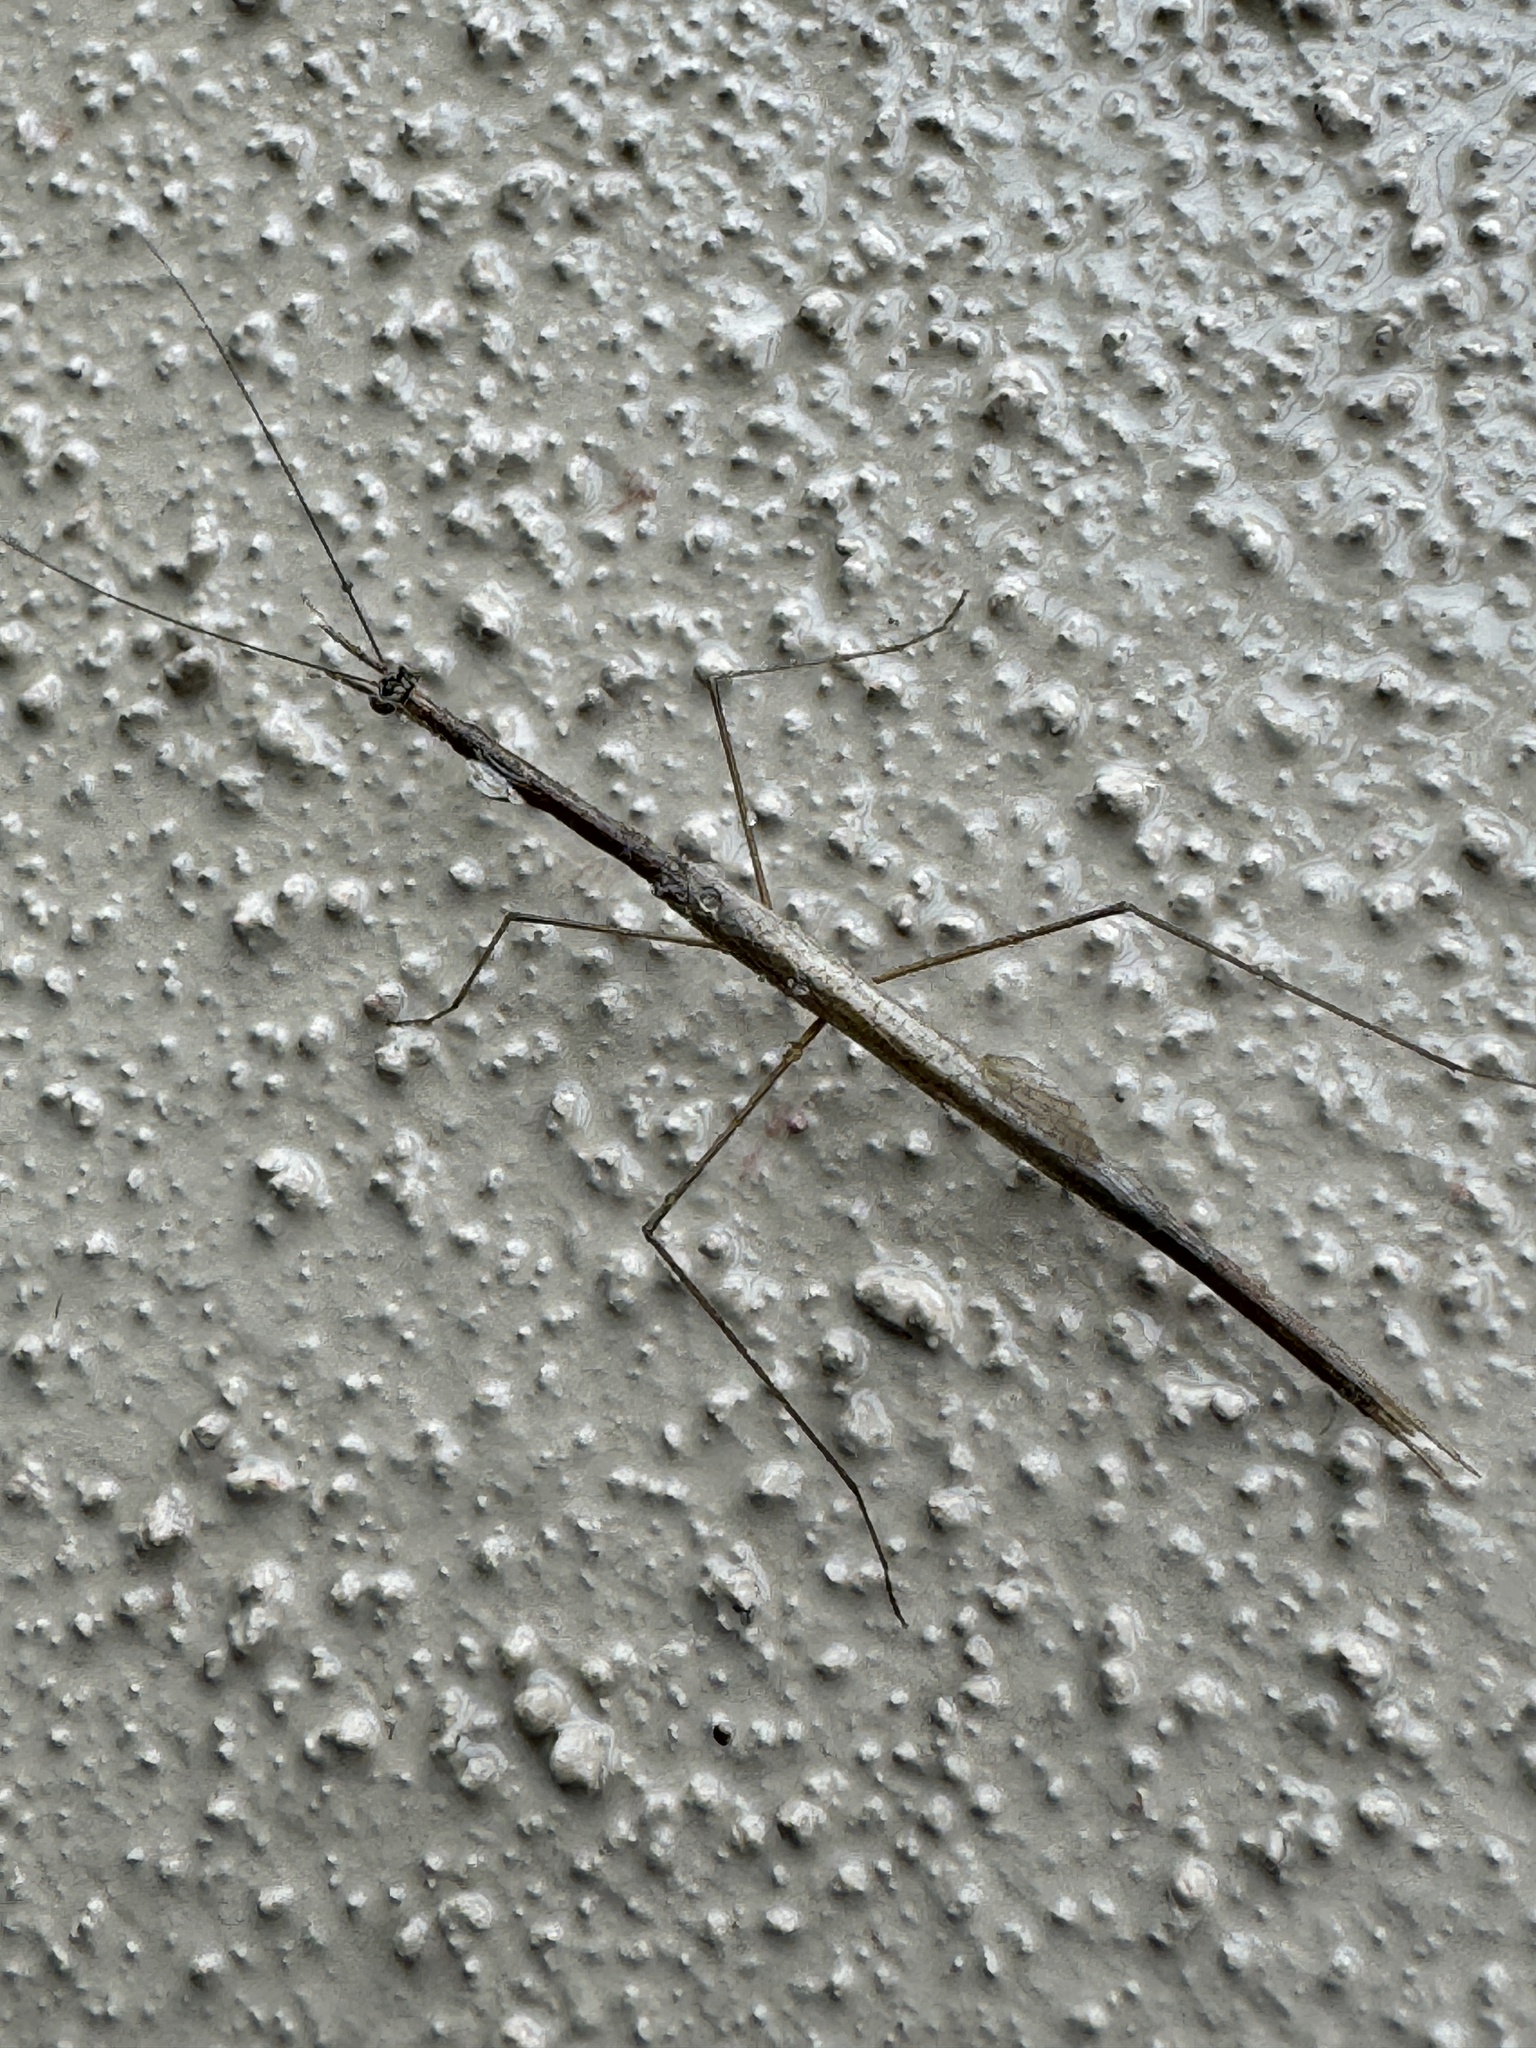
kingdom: Animalia
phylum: Arthropoda
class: Insecta
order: Mantodea
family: Thespidae
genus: Thesprotia
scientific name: Thesprotia graminis
